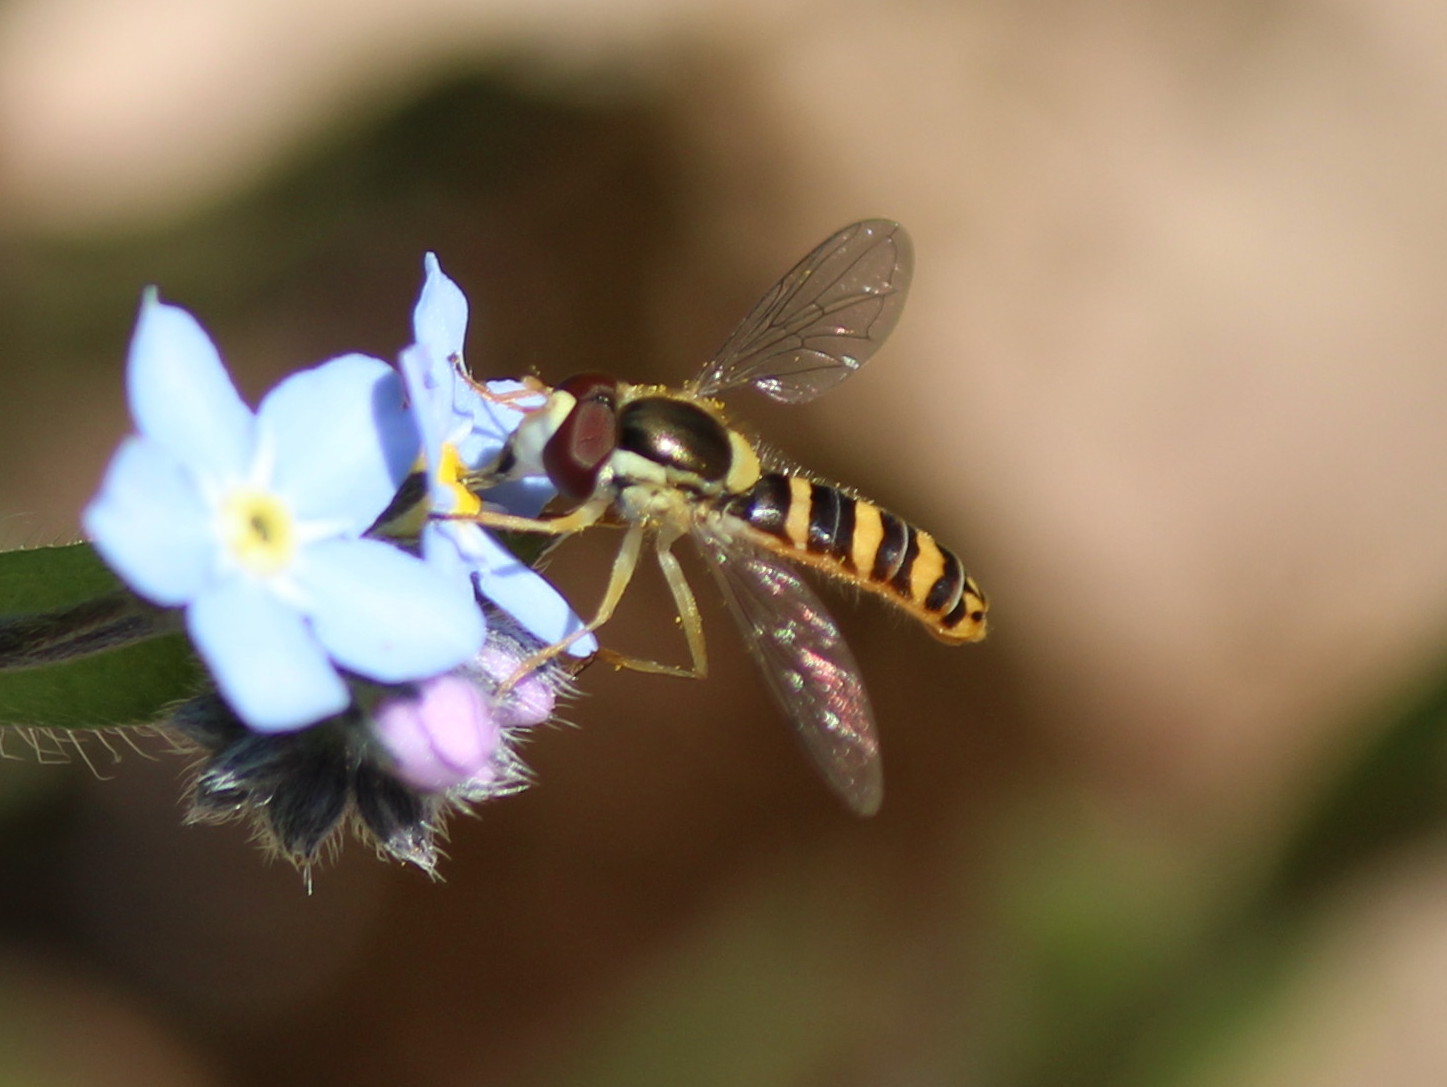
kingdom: Animalia
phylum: Arthropoda
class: Insecta
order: Diptera
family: Syrphidae
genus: Sphaerophoria
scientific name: Sphaerophoria philantha
